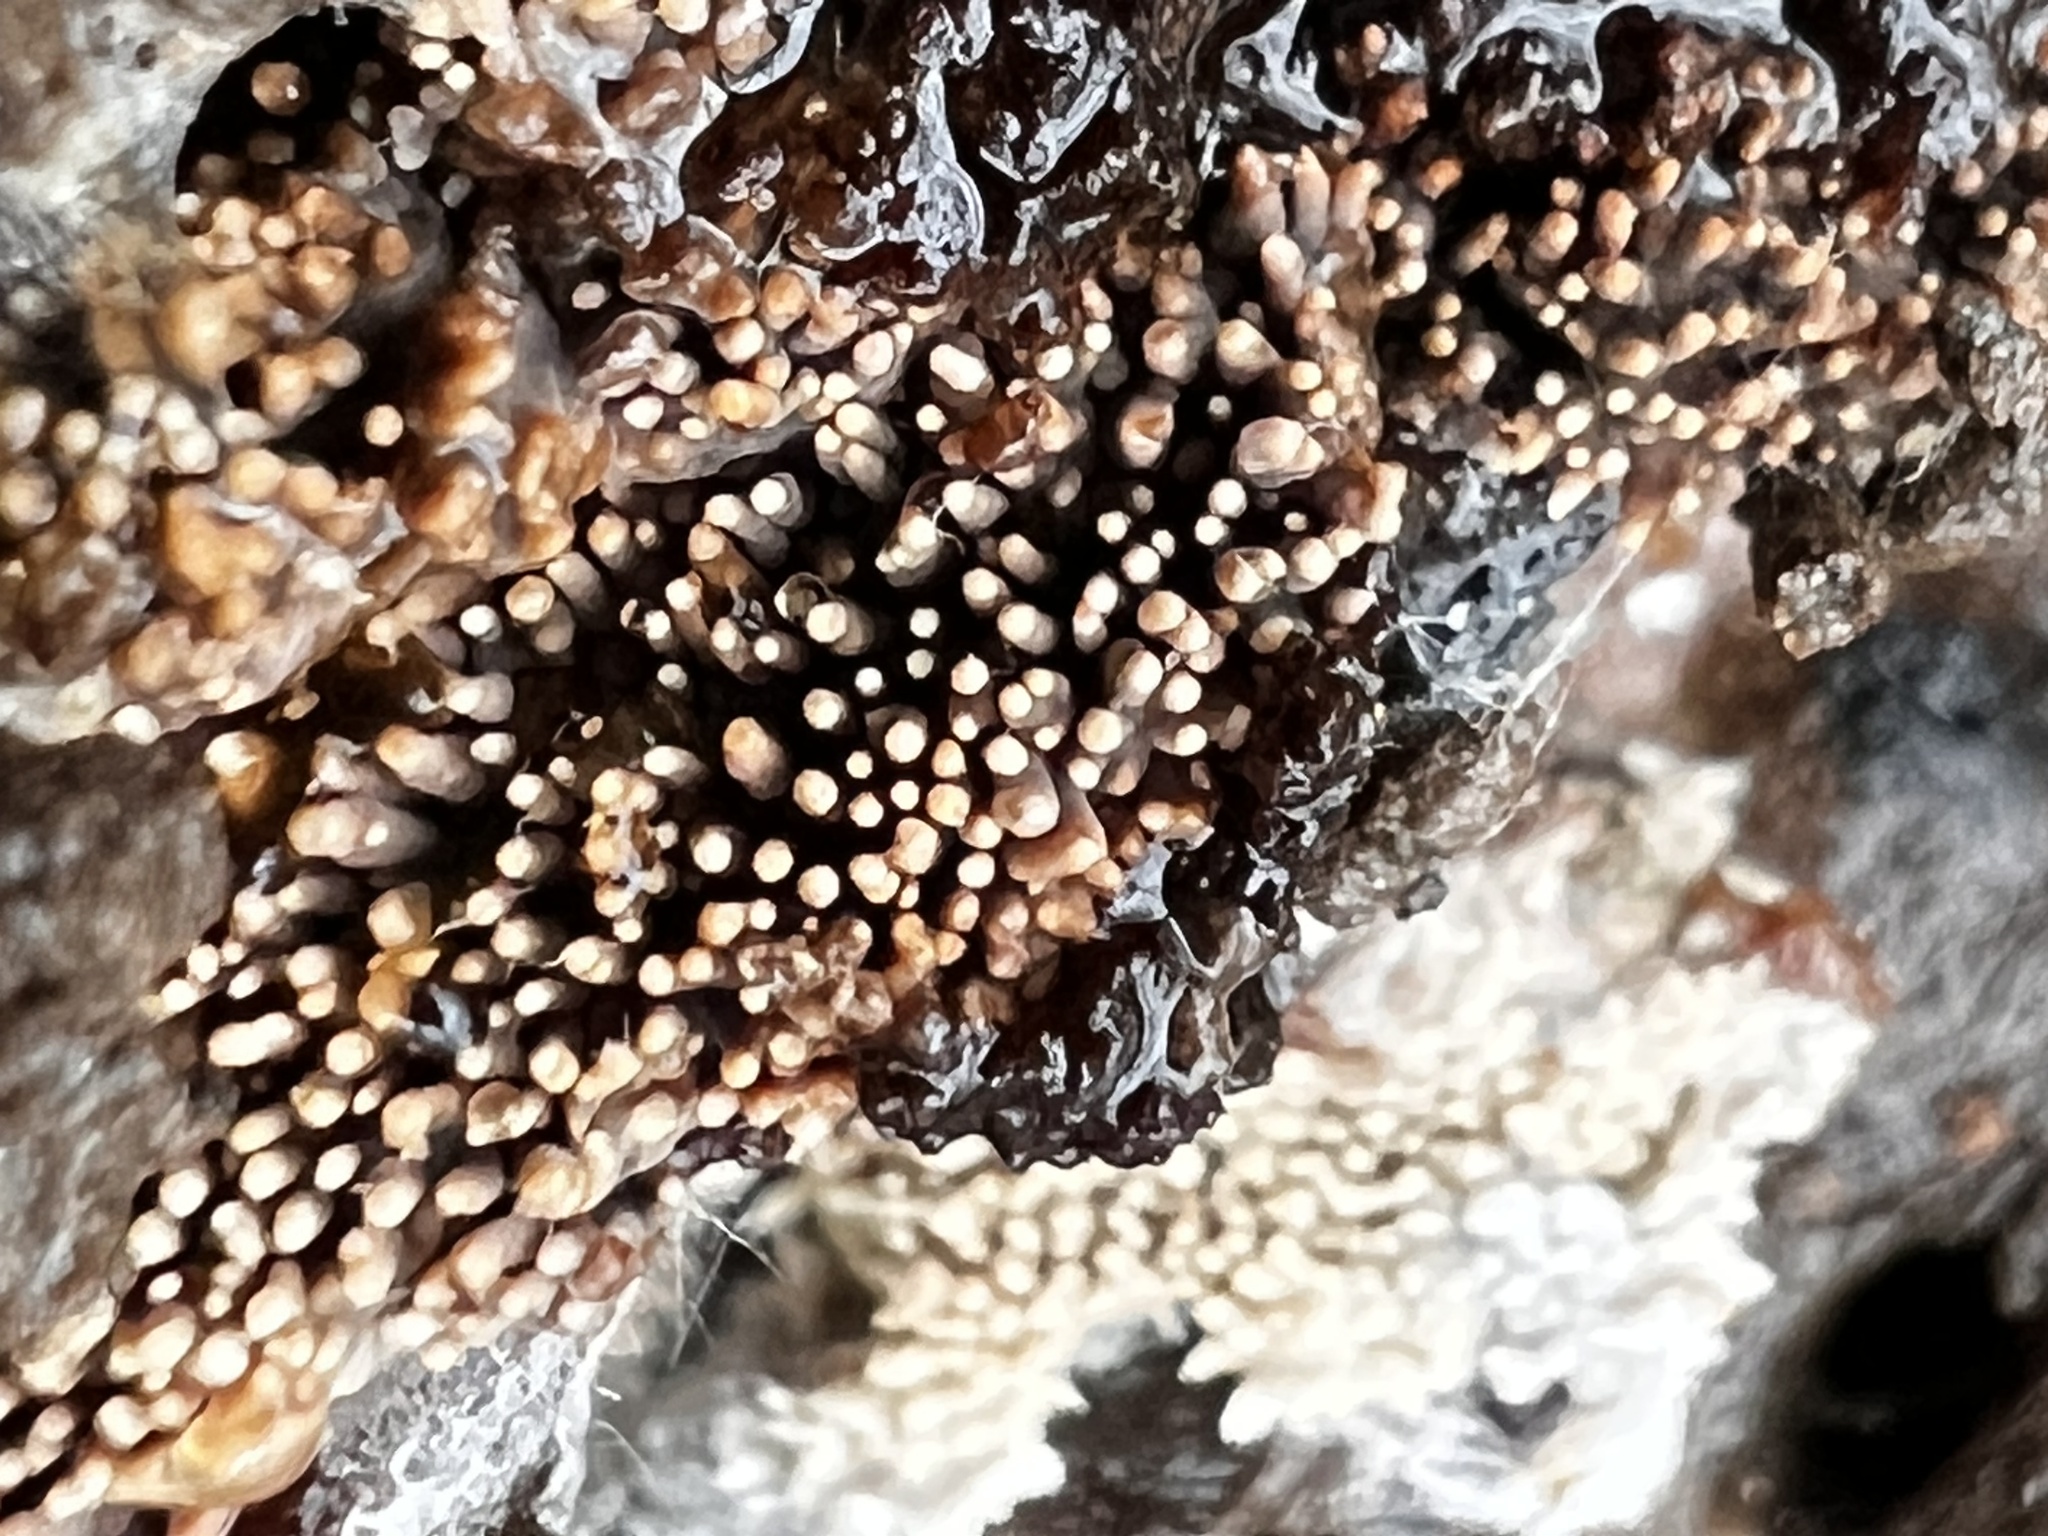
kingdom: Fungi
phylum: Basidiomycota
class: Agaricomycetes
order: Agaricales
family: Radulomycetaceae
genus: Radulomyces
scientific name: Radulomyces copelandii
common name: Asian beauty
